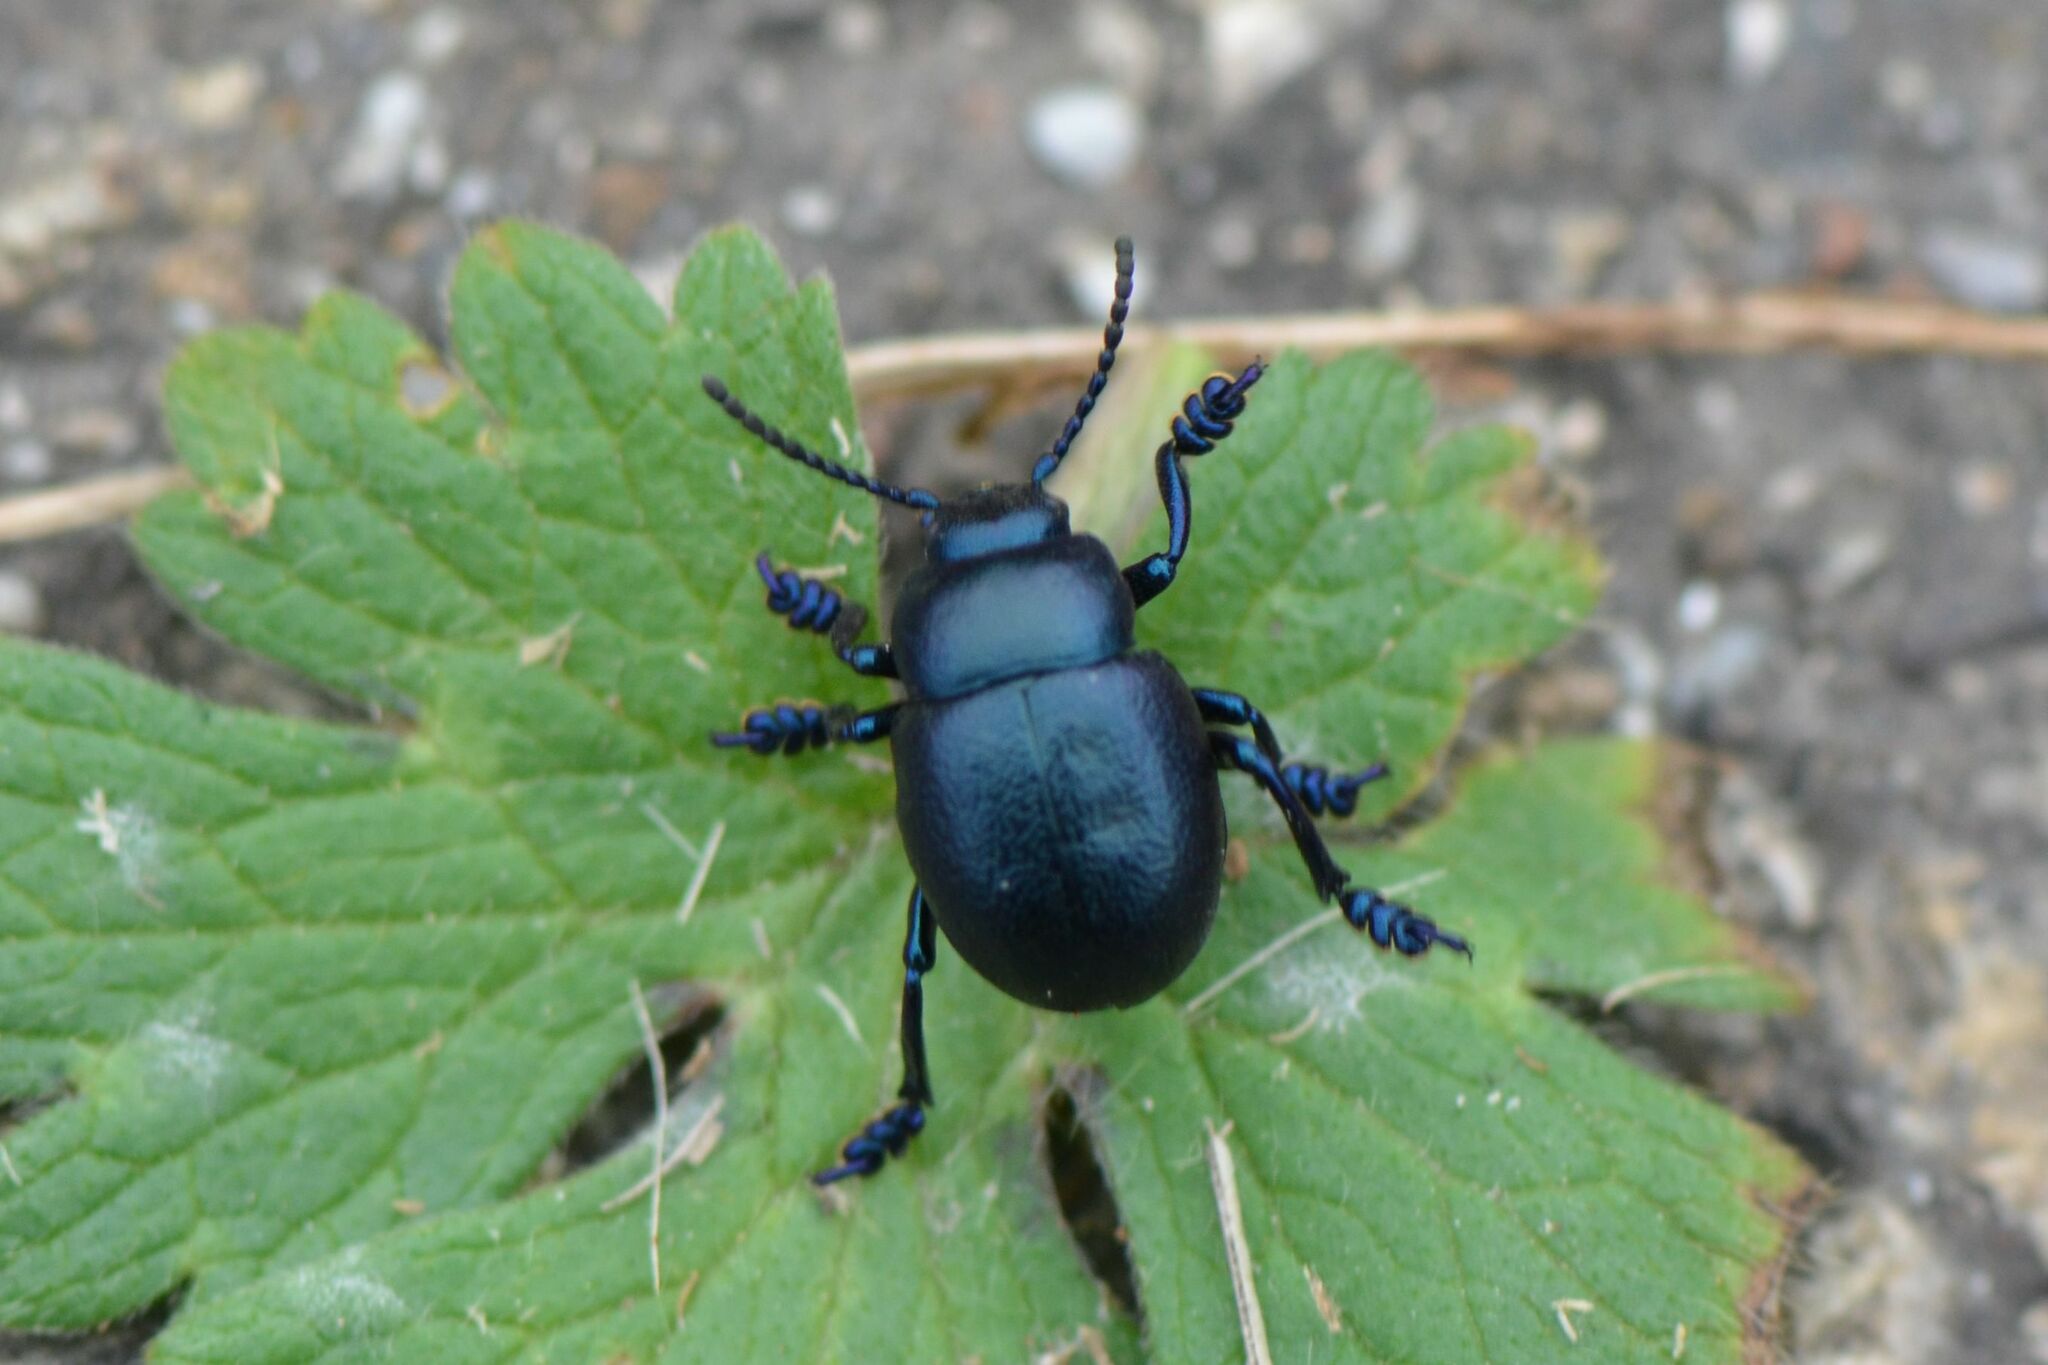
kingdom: Animalia
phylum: Arthropoda
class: Insecta
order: Coleoptera
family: Chrysomelidae
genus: Timarcha
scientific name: Timarcha goettingensis
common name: Small bloody-nosed beetle
